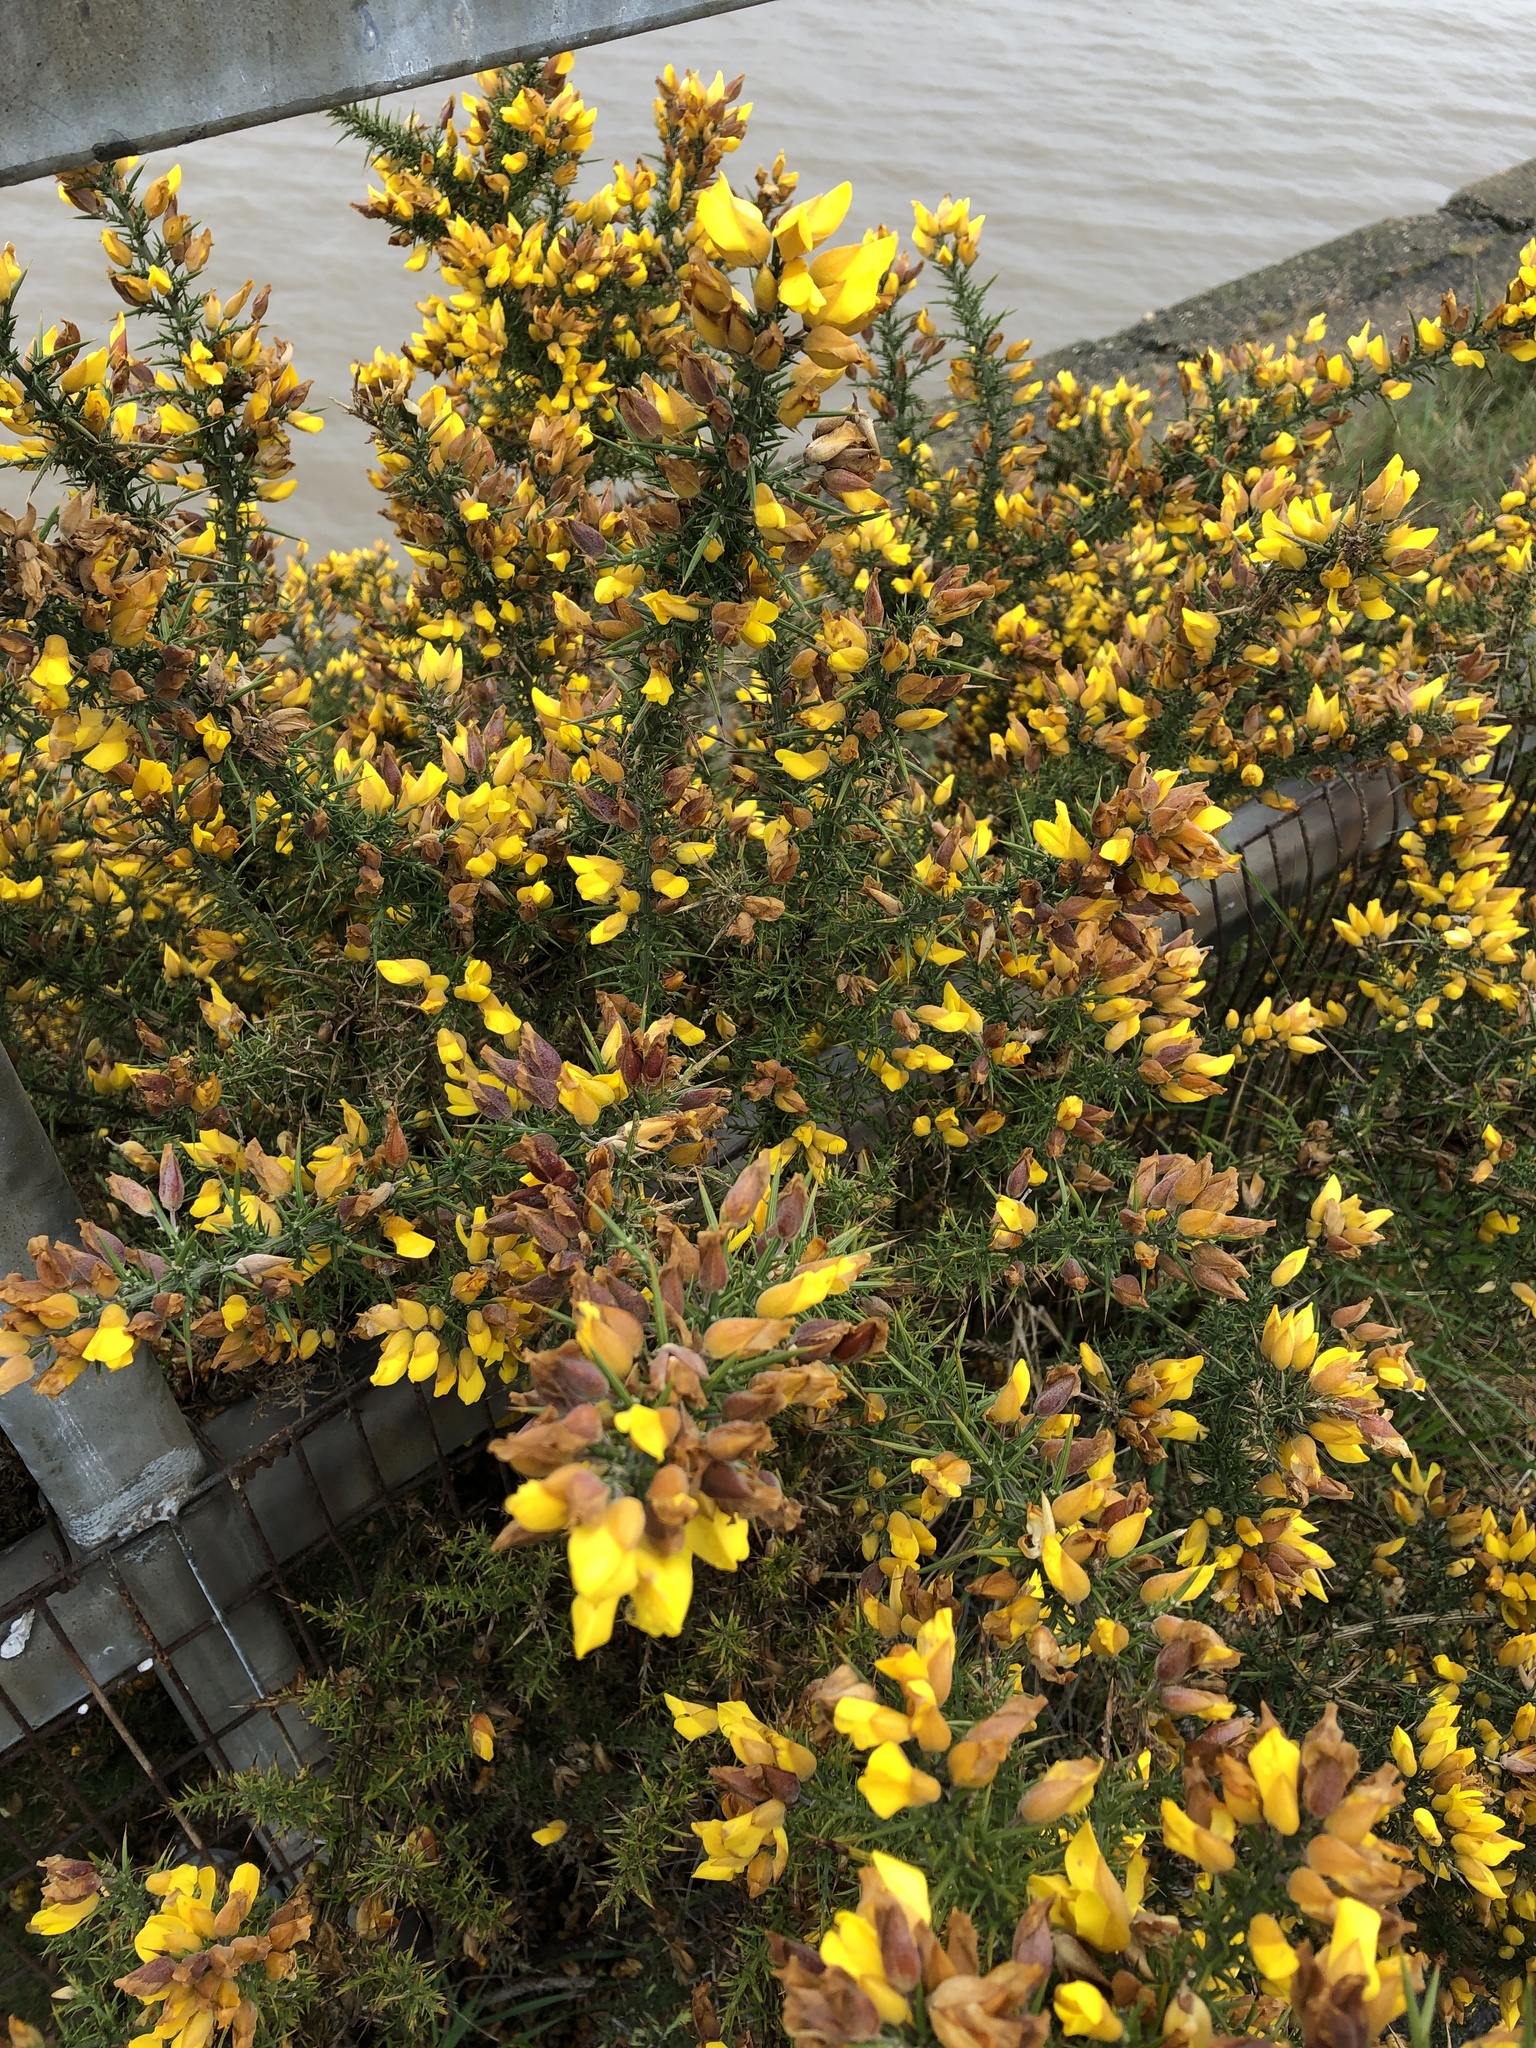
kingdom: Plantae
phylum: Tracheophyta
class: Magnoliopsida
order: Fabales
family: Fabaceae
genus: Ulex
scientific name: Ulex europaeus
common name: Common gorse
